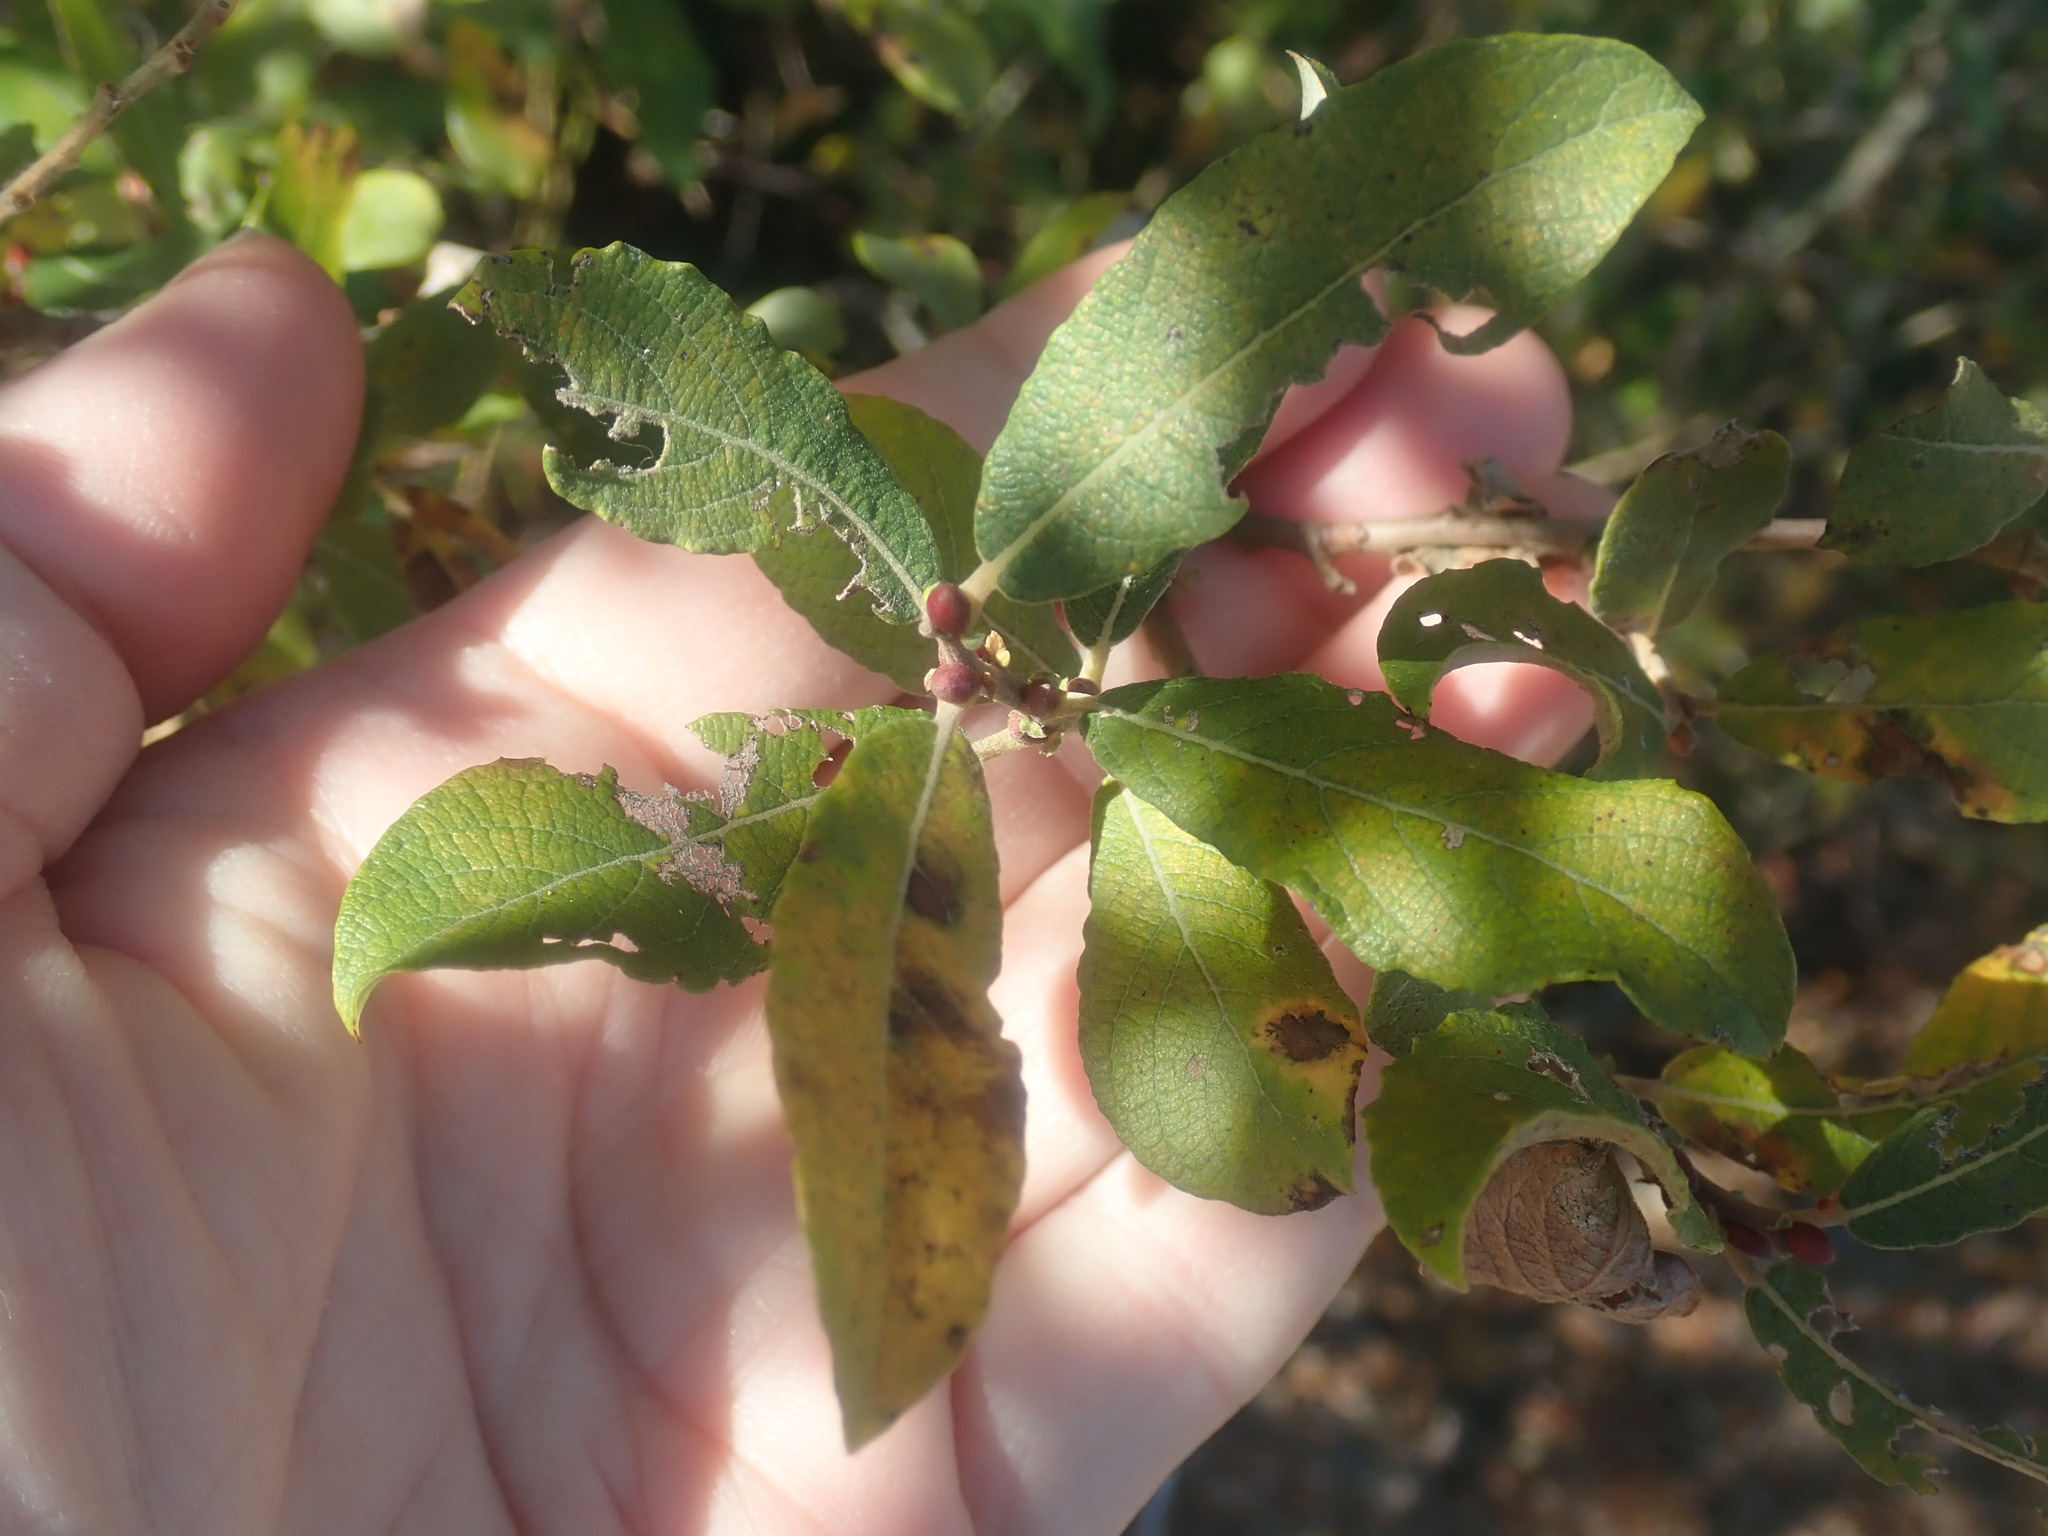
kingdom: Plantae
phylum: Tracheophyta
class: Magnoliopsida
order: Malpighiales
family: Salicaceae
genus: Salix
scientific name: Salix cinerea
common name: Common sallow
